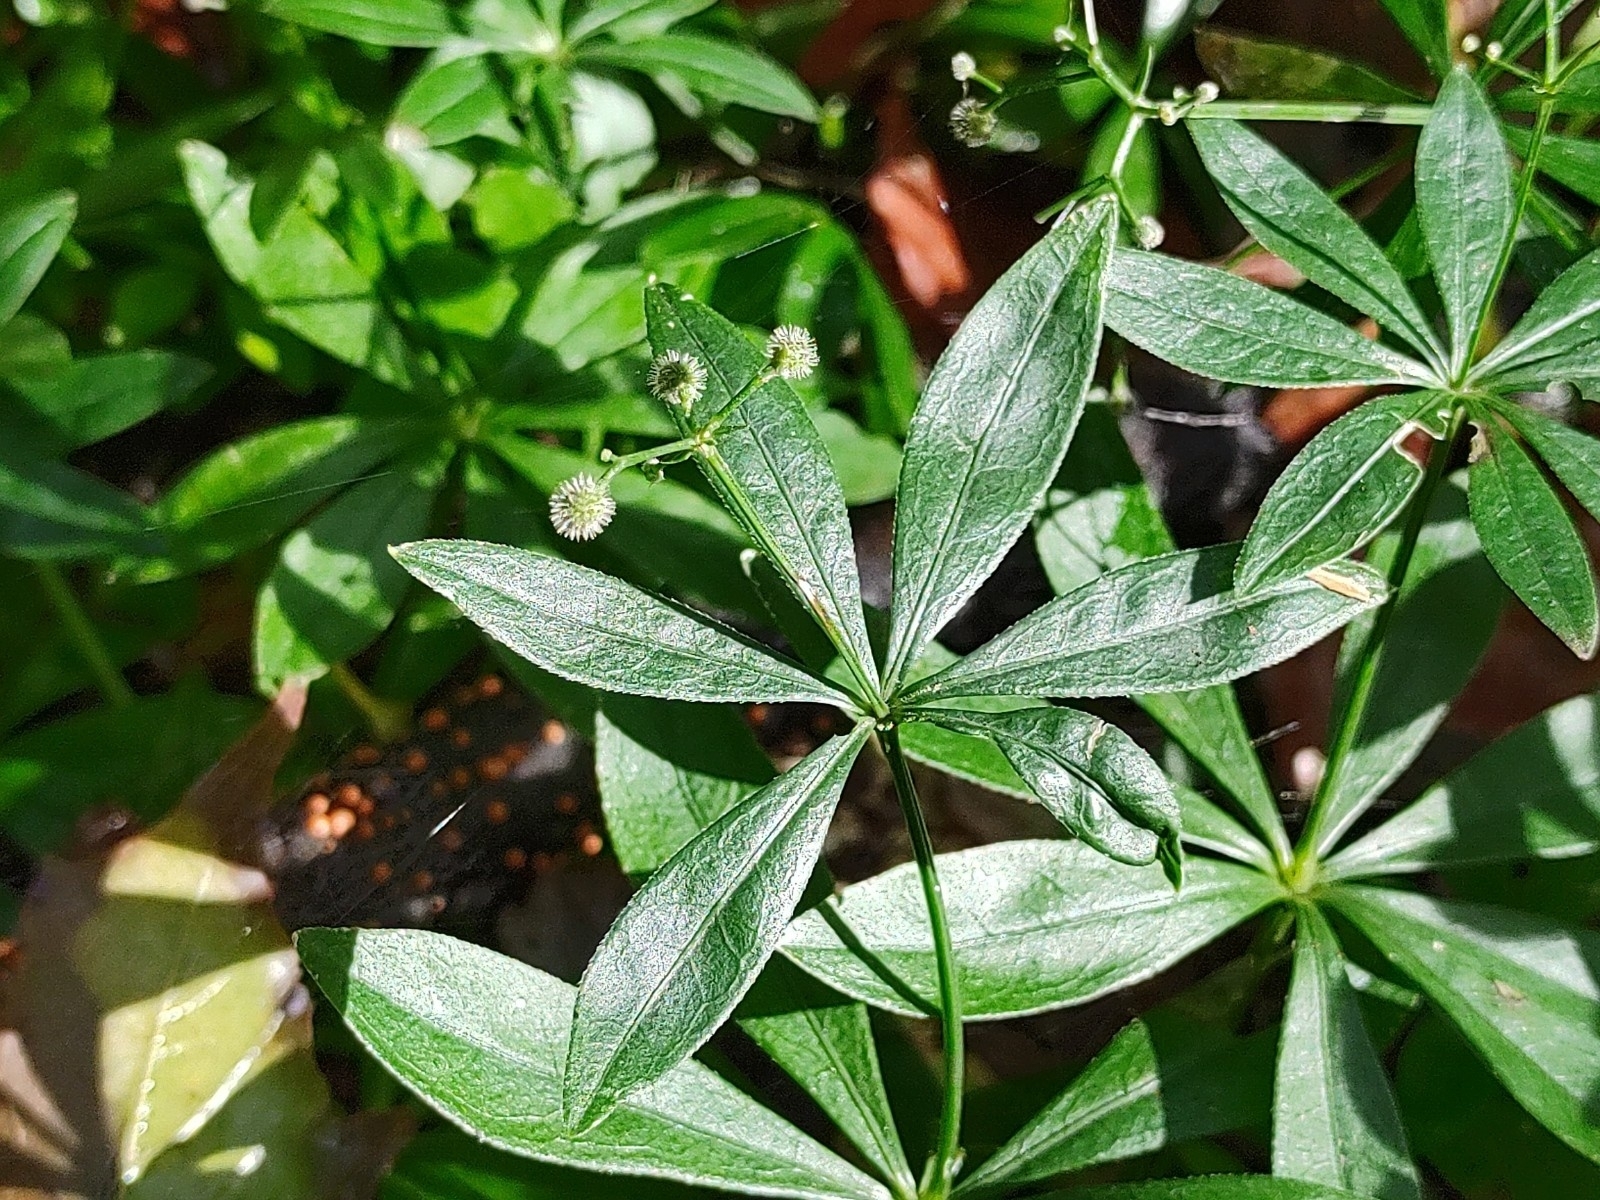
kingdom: Plantae
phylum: Tracheophyta
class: Magnoliopsida
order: Gentianales
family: Rubiaceae
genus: Galium
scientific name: Galium odoratum
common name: Sweet woodruff
